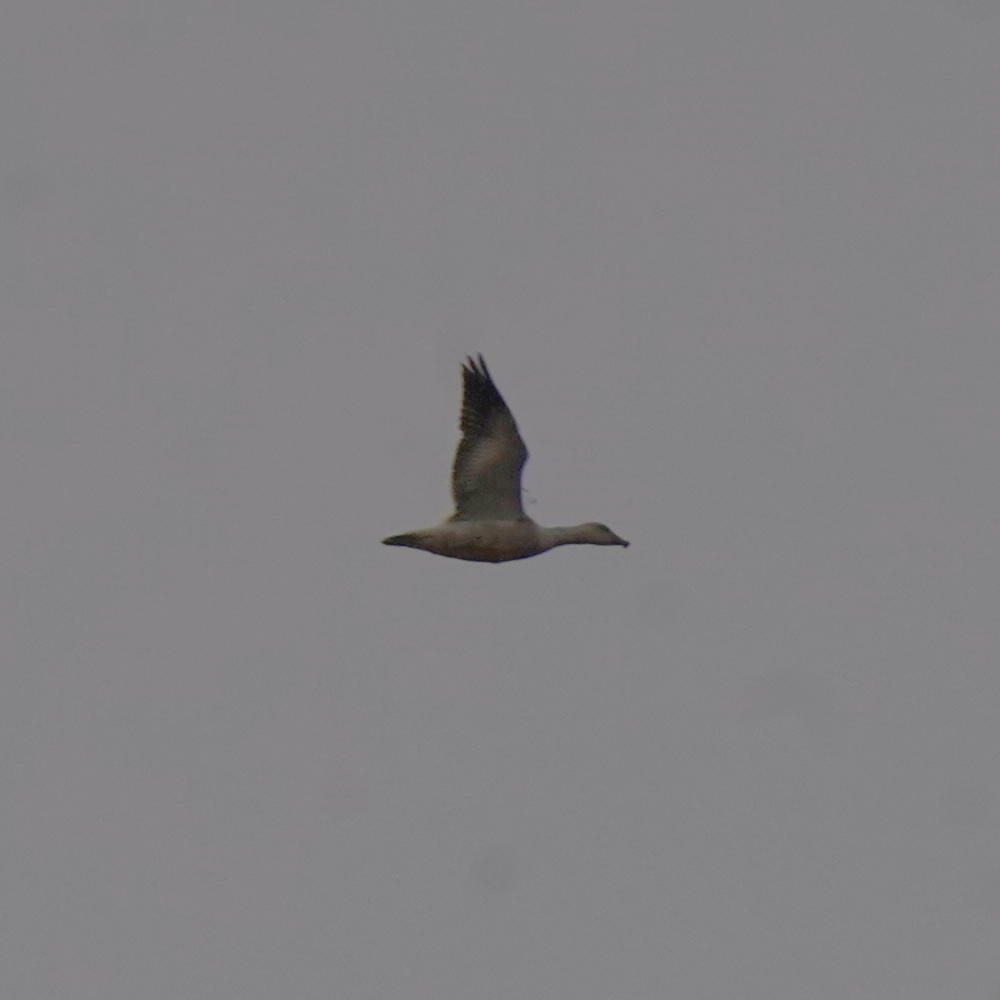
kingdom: Animalia
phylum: Chordata
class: Aves
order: Anseriformes
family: Anatidae
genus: Anser
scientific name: Anser caerulescens
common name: Snow goose
